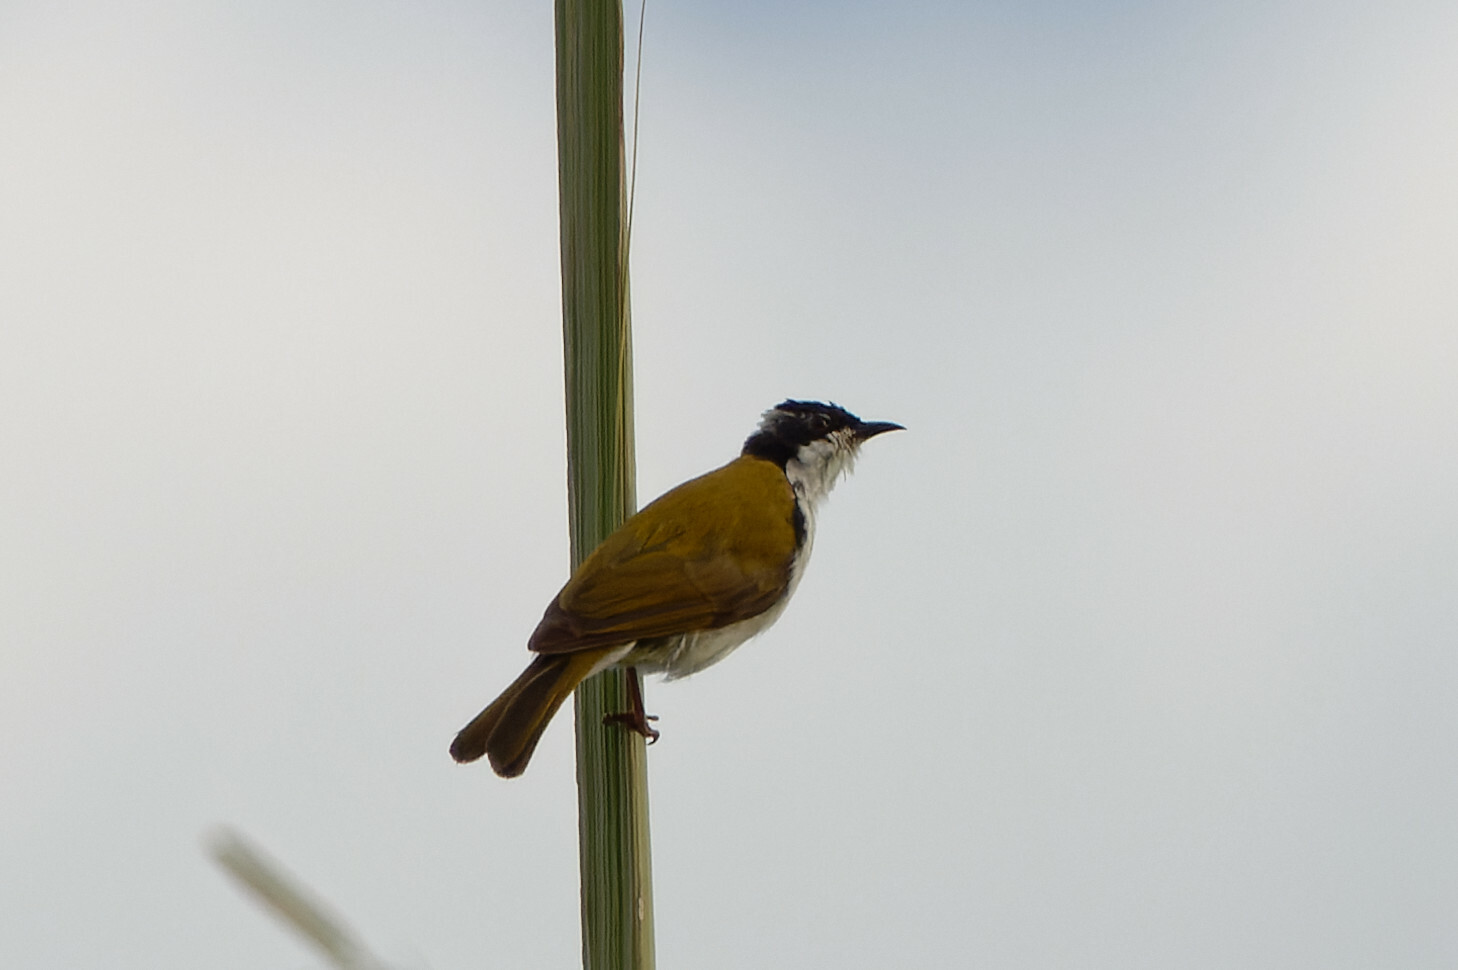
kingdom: Animalia
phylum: Chordata
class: Aves
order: Passeriformes
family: Meliphagidae
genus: Melithreptus
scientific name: Melithreptus albogularis
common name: White-throated honeyeater
